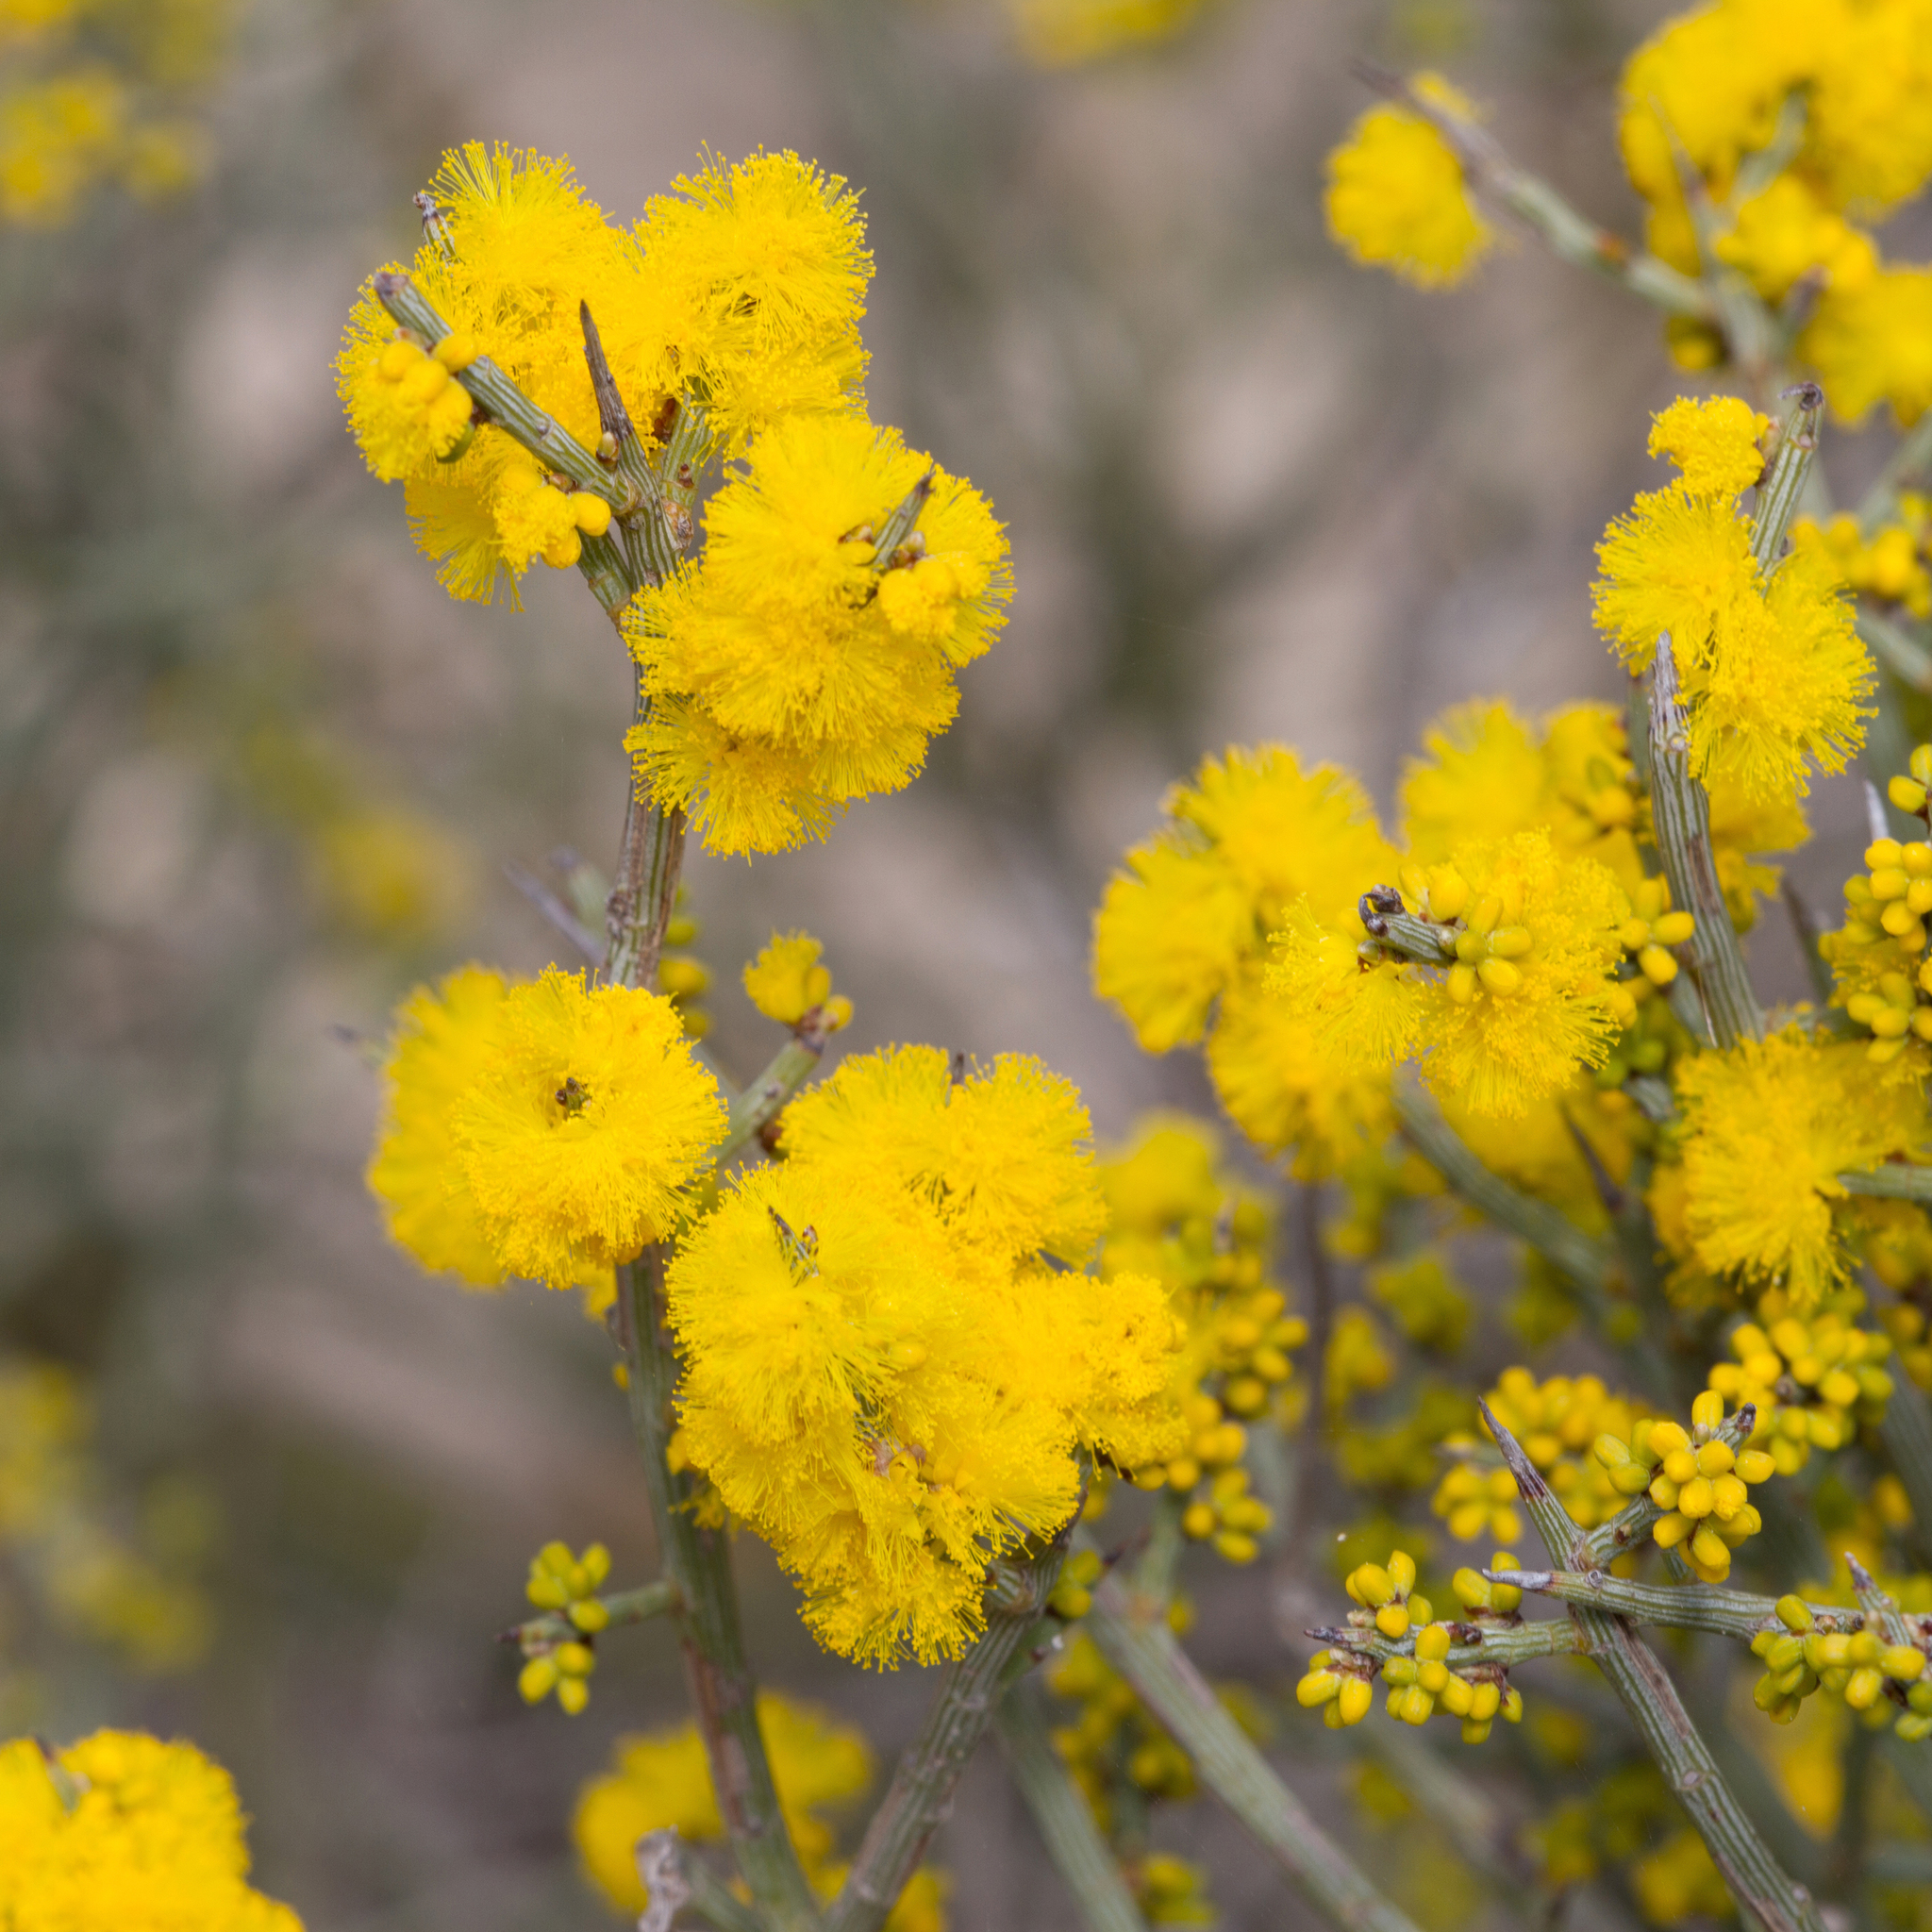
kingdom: Plantae
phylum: Tracheophyta
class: Magnoliopsida
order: Fabales
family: Fabaceae
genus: Acacia
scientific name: Acacia spinescens
